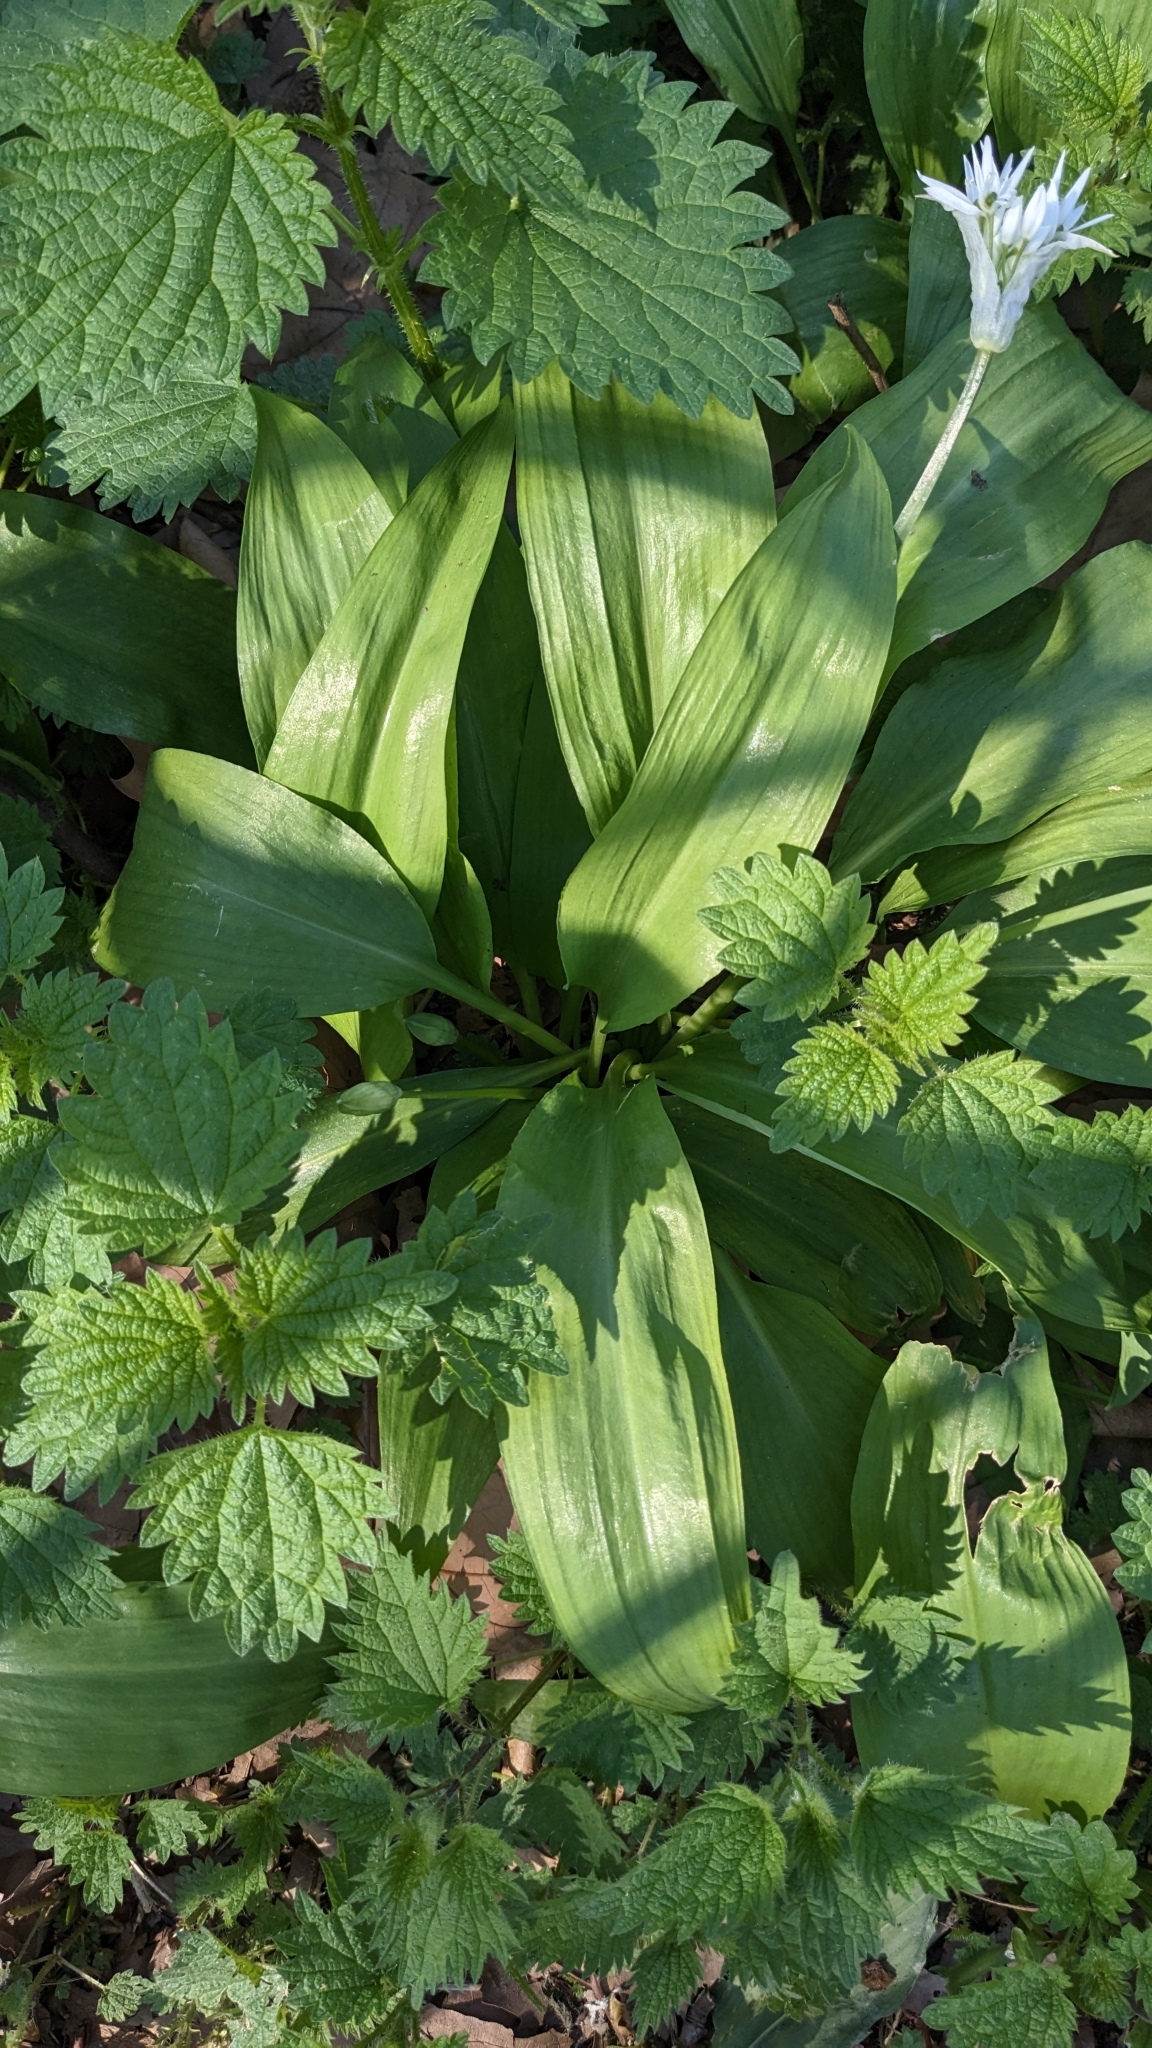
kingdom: Plantae
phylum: Tracheophyta
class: Liliopsida
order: Asparagales
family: Amaryllidaceae
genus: Allium
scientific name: Allium ursinum
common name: Ramsons
